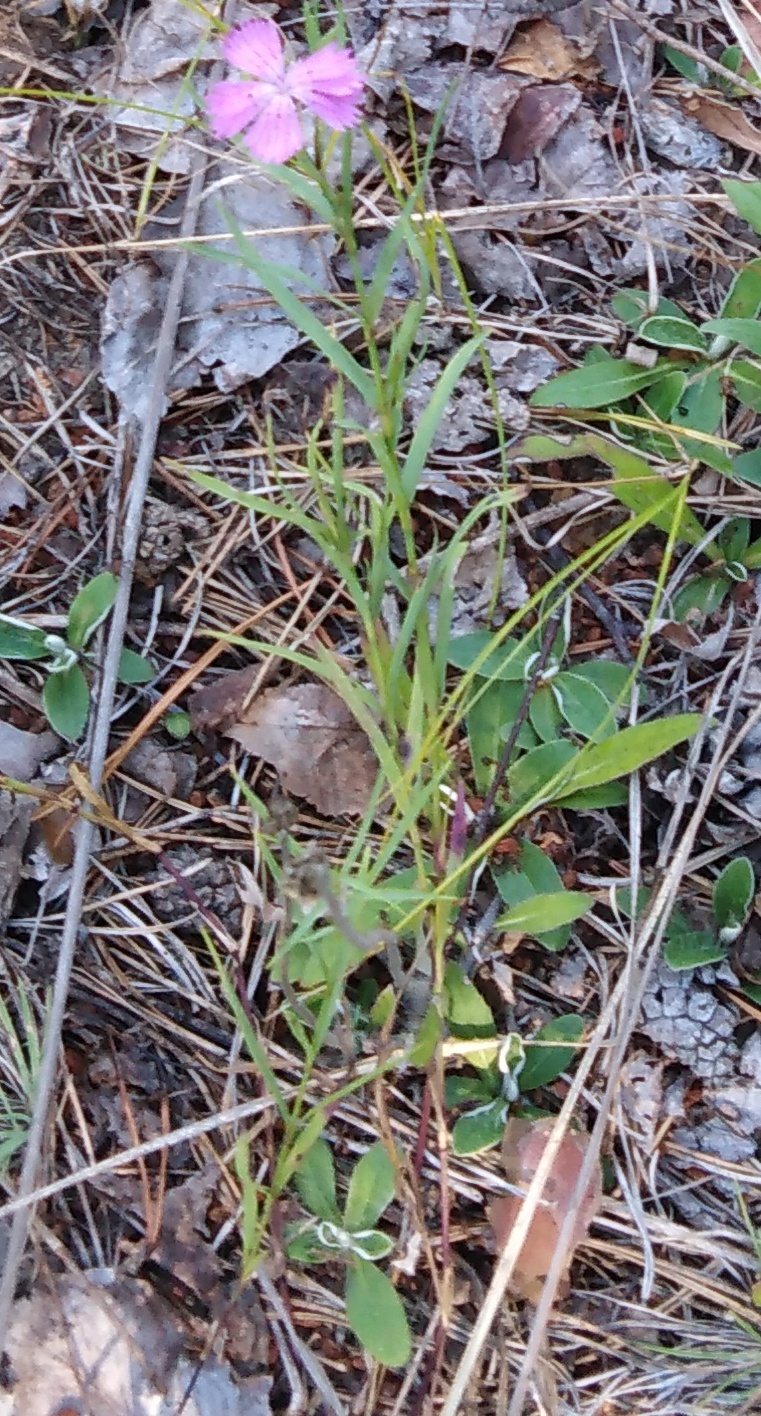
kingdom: Plantae
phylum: Tracheophyta
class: Magnoliopsida
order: Caryophyllales
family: Caryophyllaceae
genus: Dianthus
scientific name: Dianthus chinensis
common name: Rainbow pink
